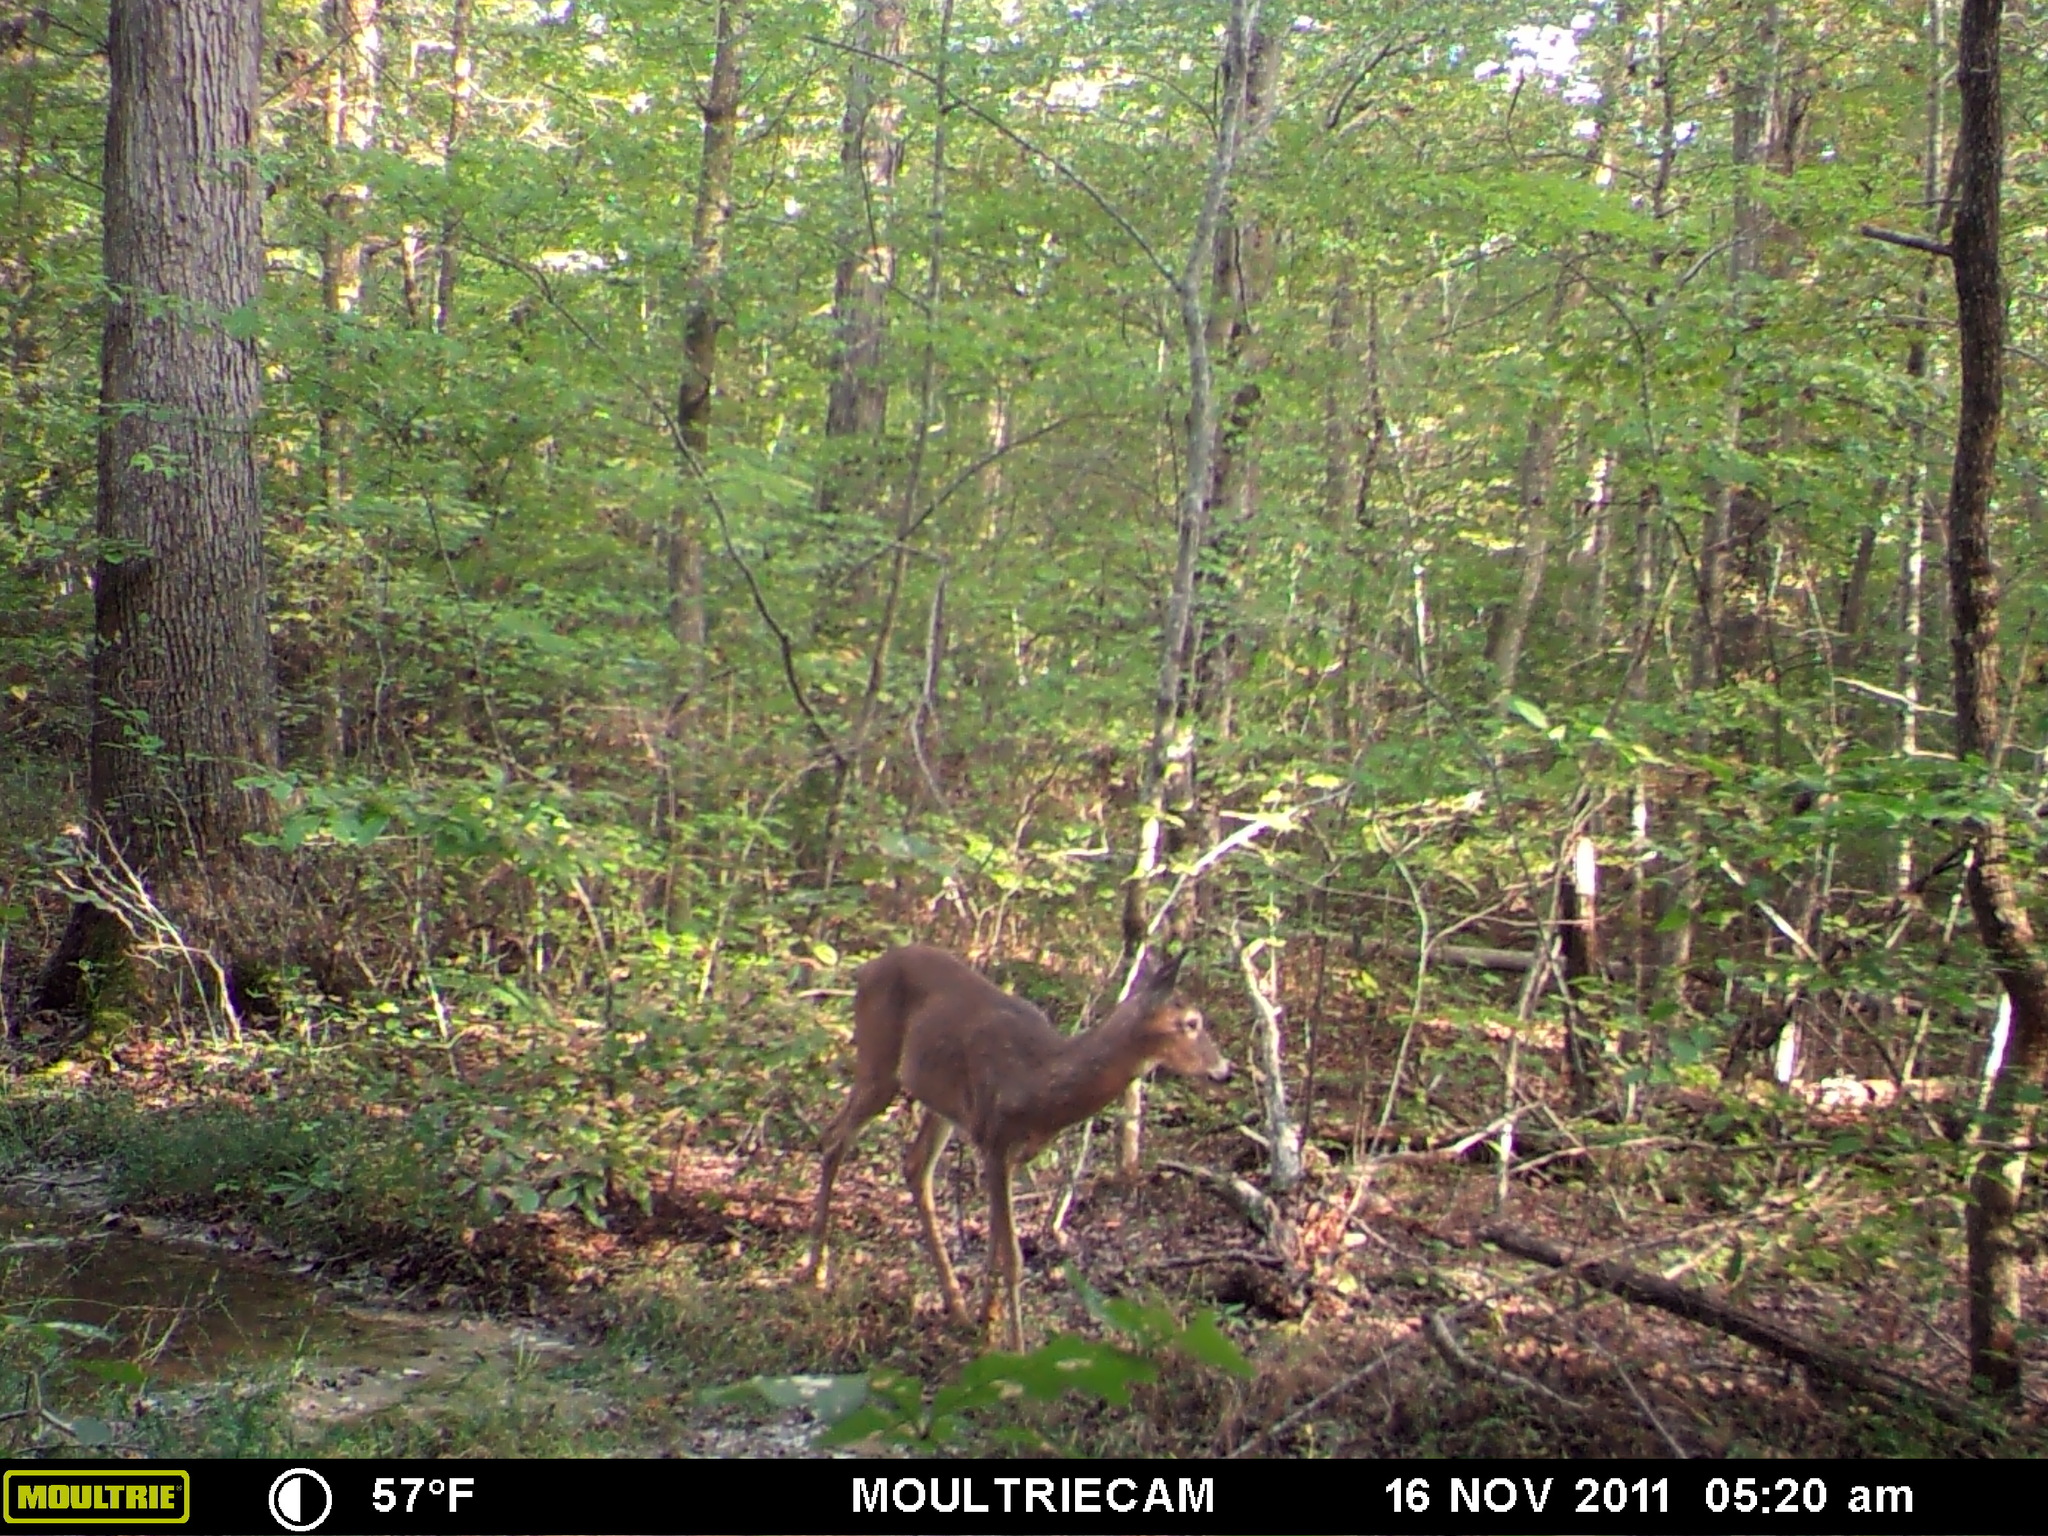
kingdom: Animalia
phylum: Chordata
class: Mammalia
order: Artiodactyla
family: Cervidae
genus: Odocoileus
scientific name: Odocoileus virginianus
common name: White-tailed deer
